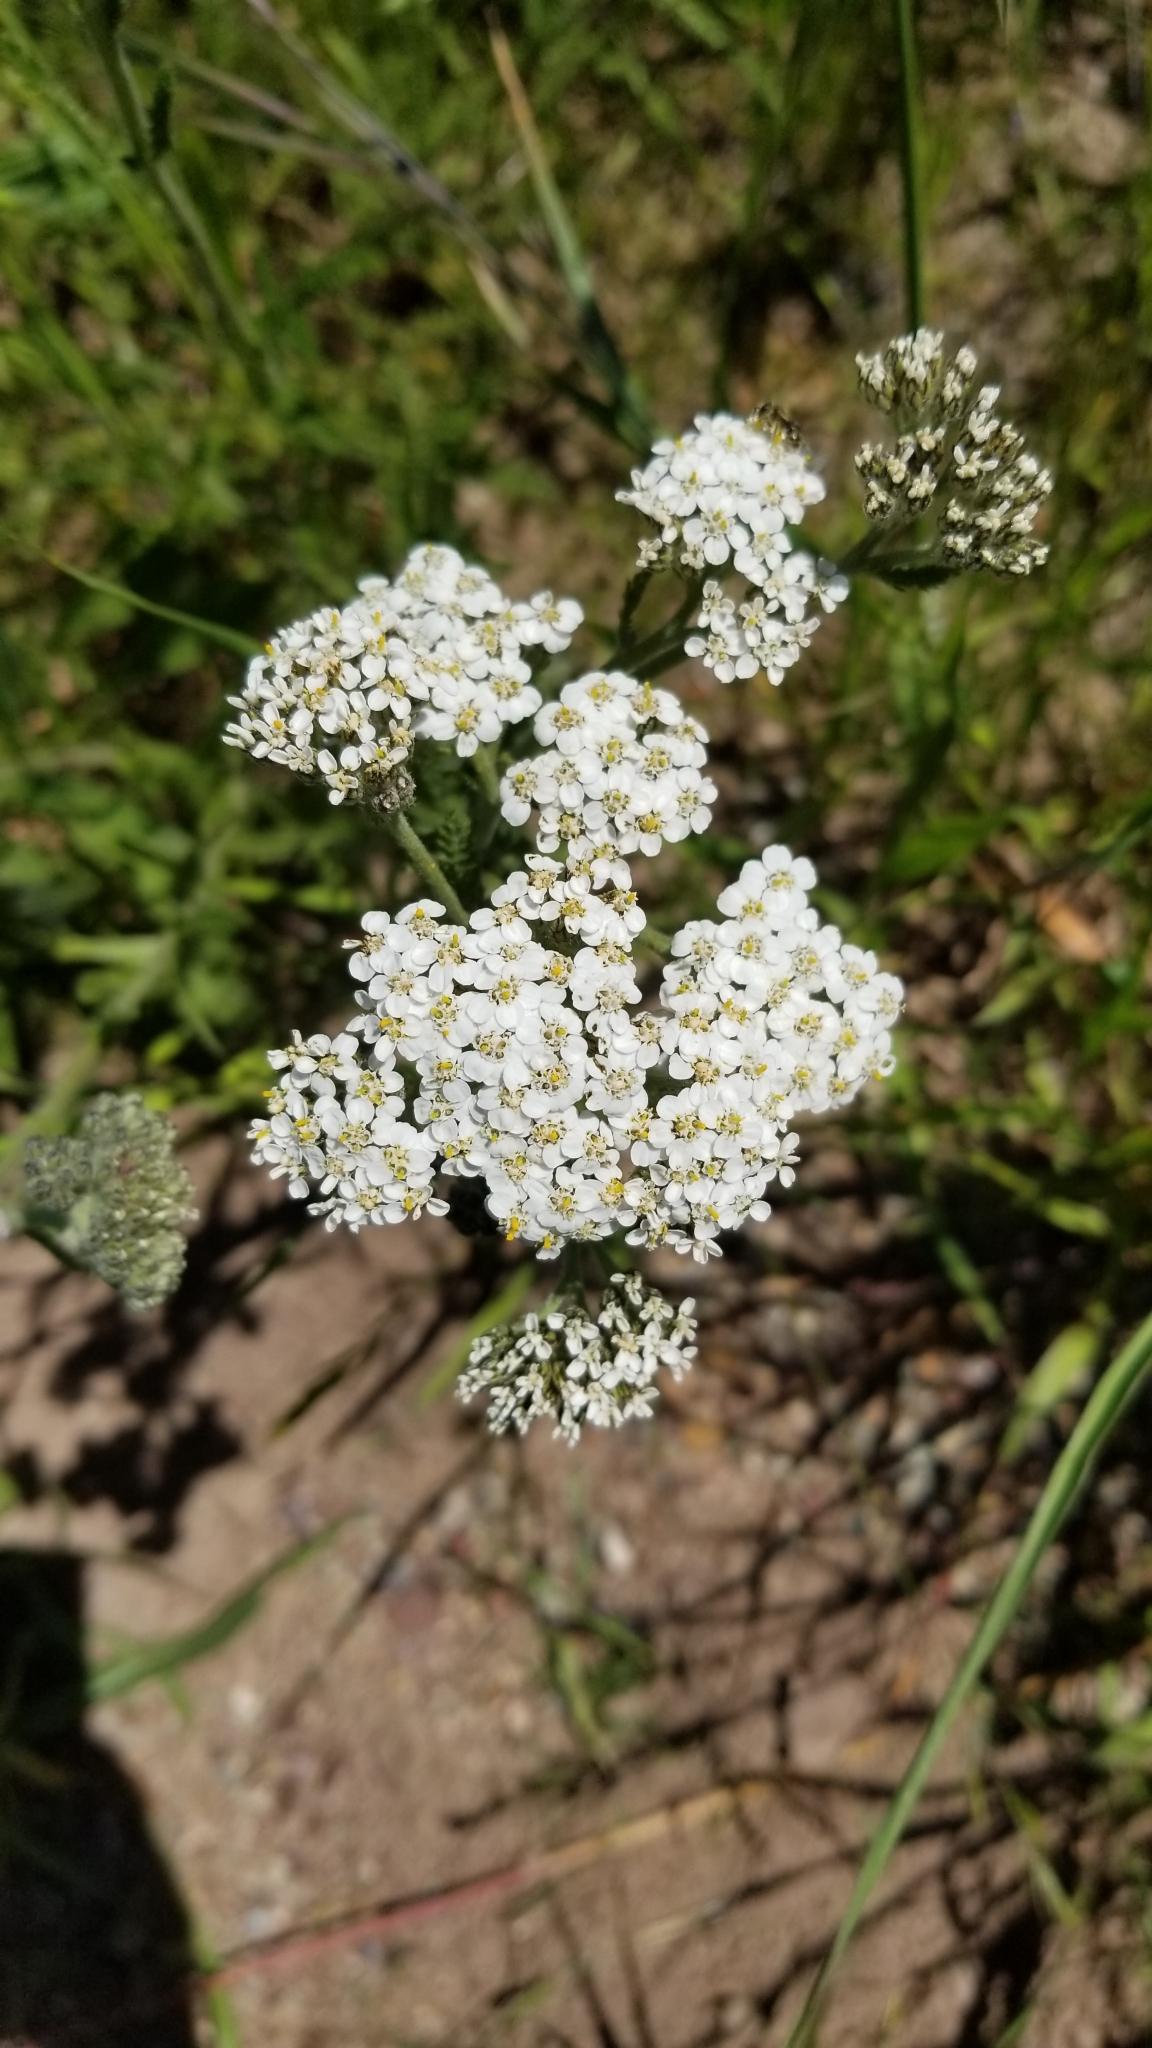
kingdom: Plantae
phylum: Tracheophyta
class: Magnoliopsida
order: Asterales
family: Asteraceae
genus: Achillea
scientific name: Achillea millefolium
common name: Yarrow
